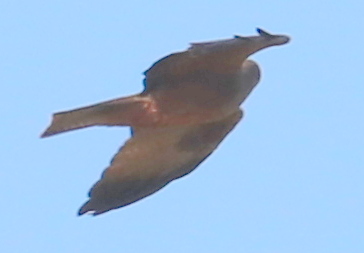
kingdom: Animalia
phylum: Chordata
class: Aves
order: Accipitriformes
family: Accipitridae
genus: Milvus
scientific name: Milvus migrans
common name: Black kite
